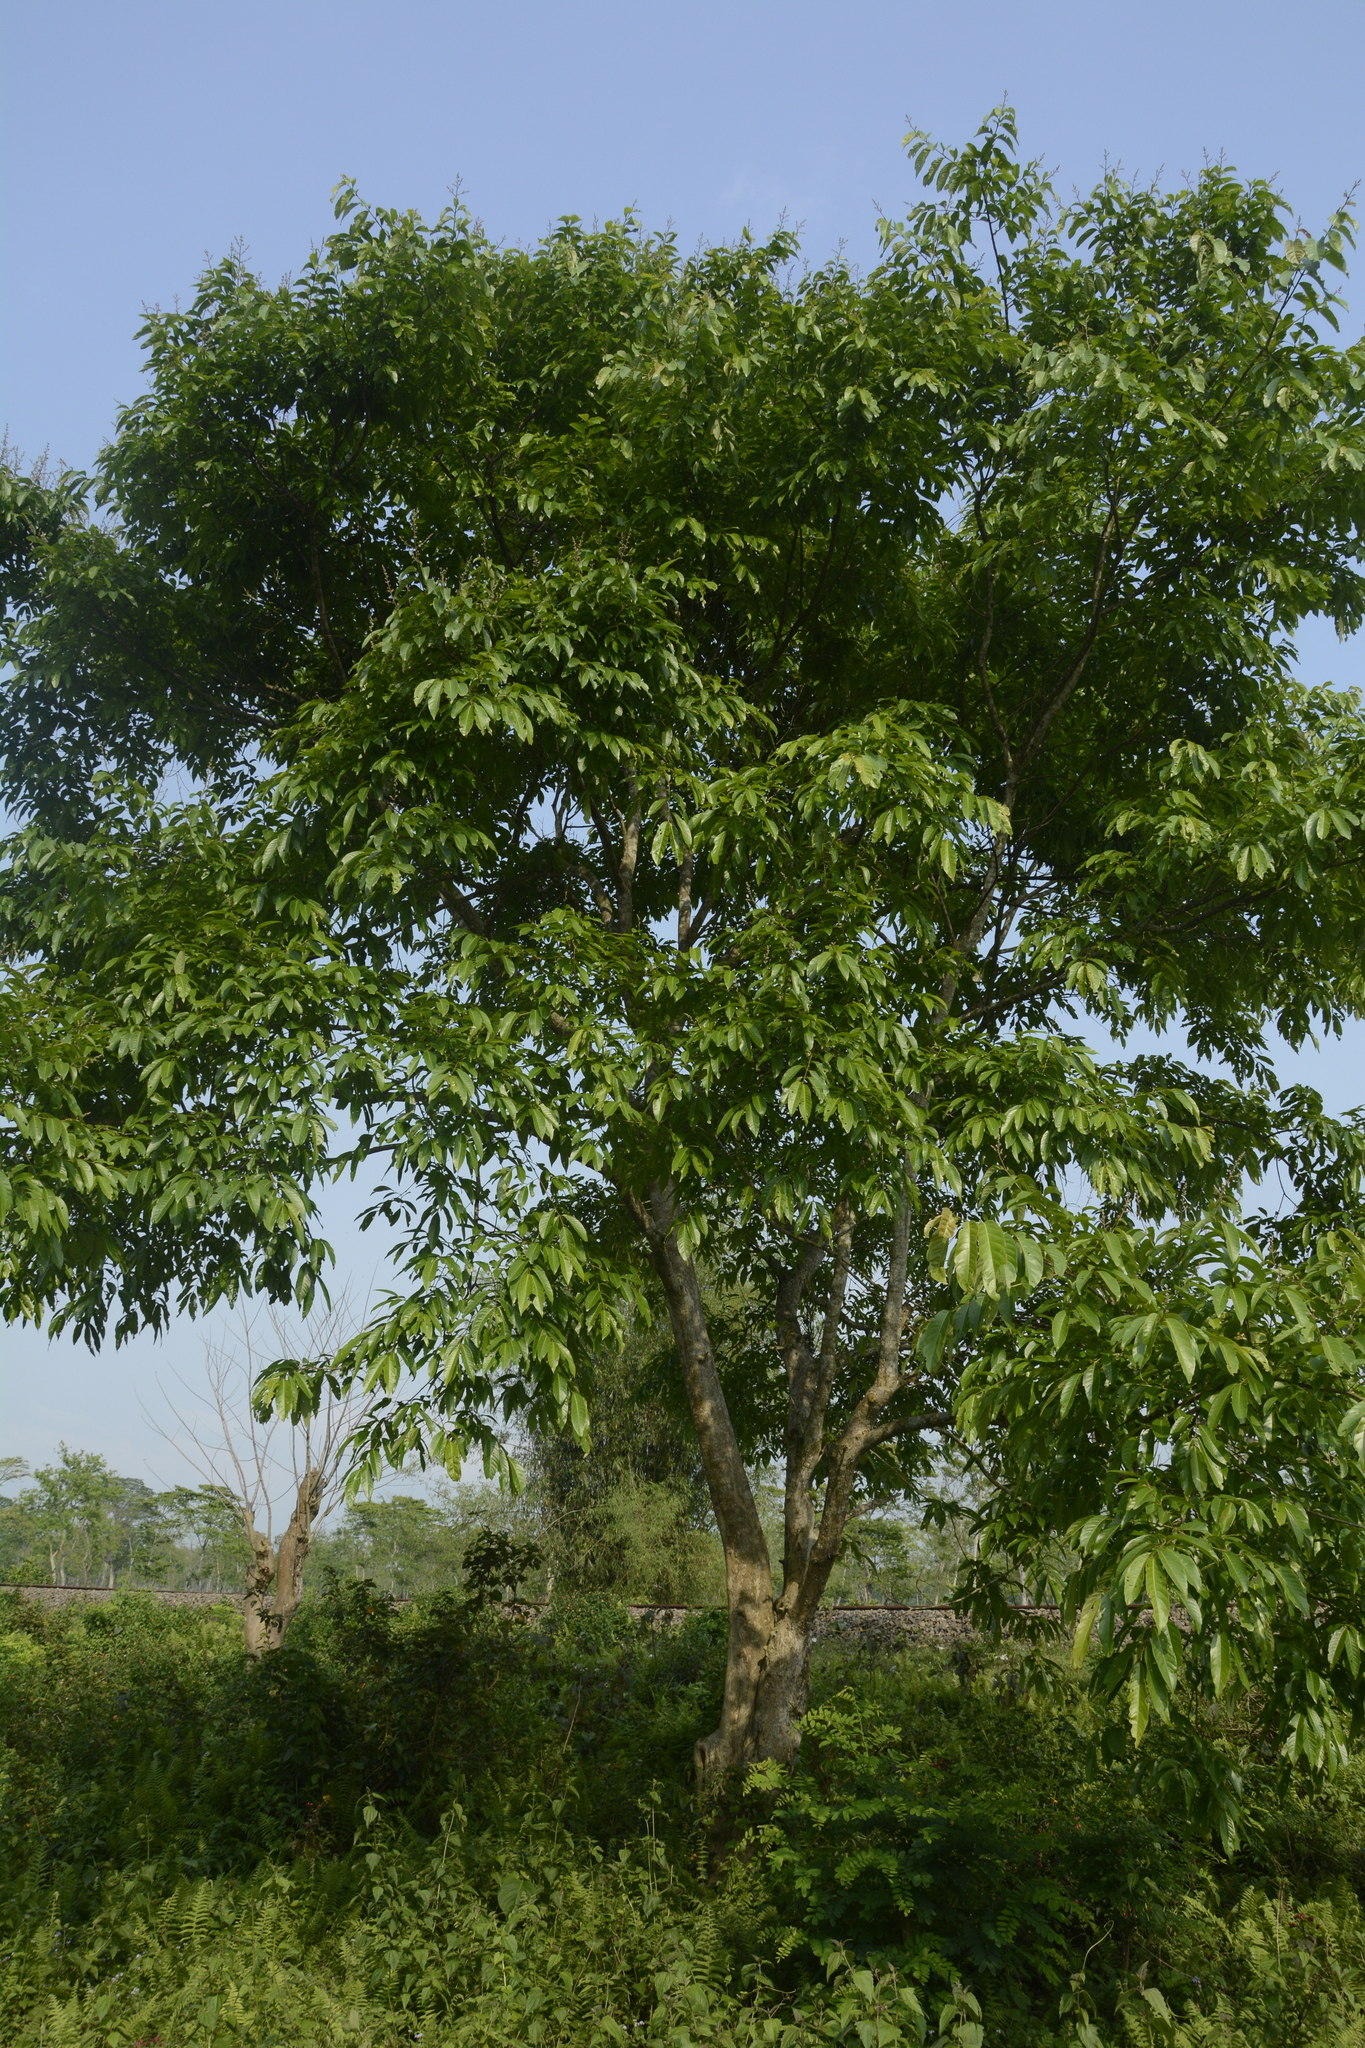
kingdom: Plantae
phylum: Tracheophyta
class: Magnoliopsida
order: Myrtales
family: Lythraceae
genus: Lagerstroemia
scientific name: Lagerstroemia speciosa
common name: Queen's crape-myrtle
